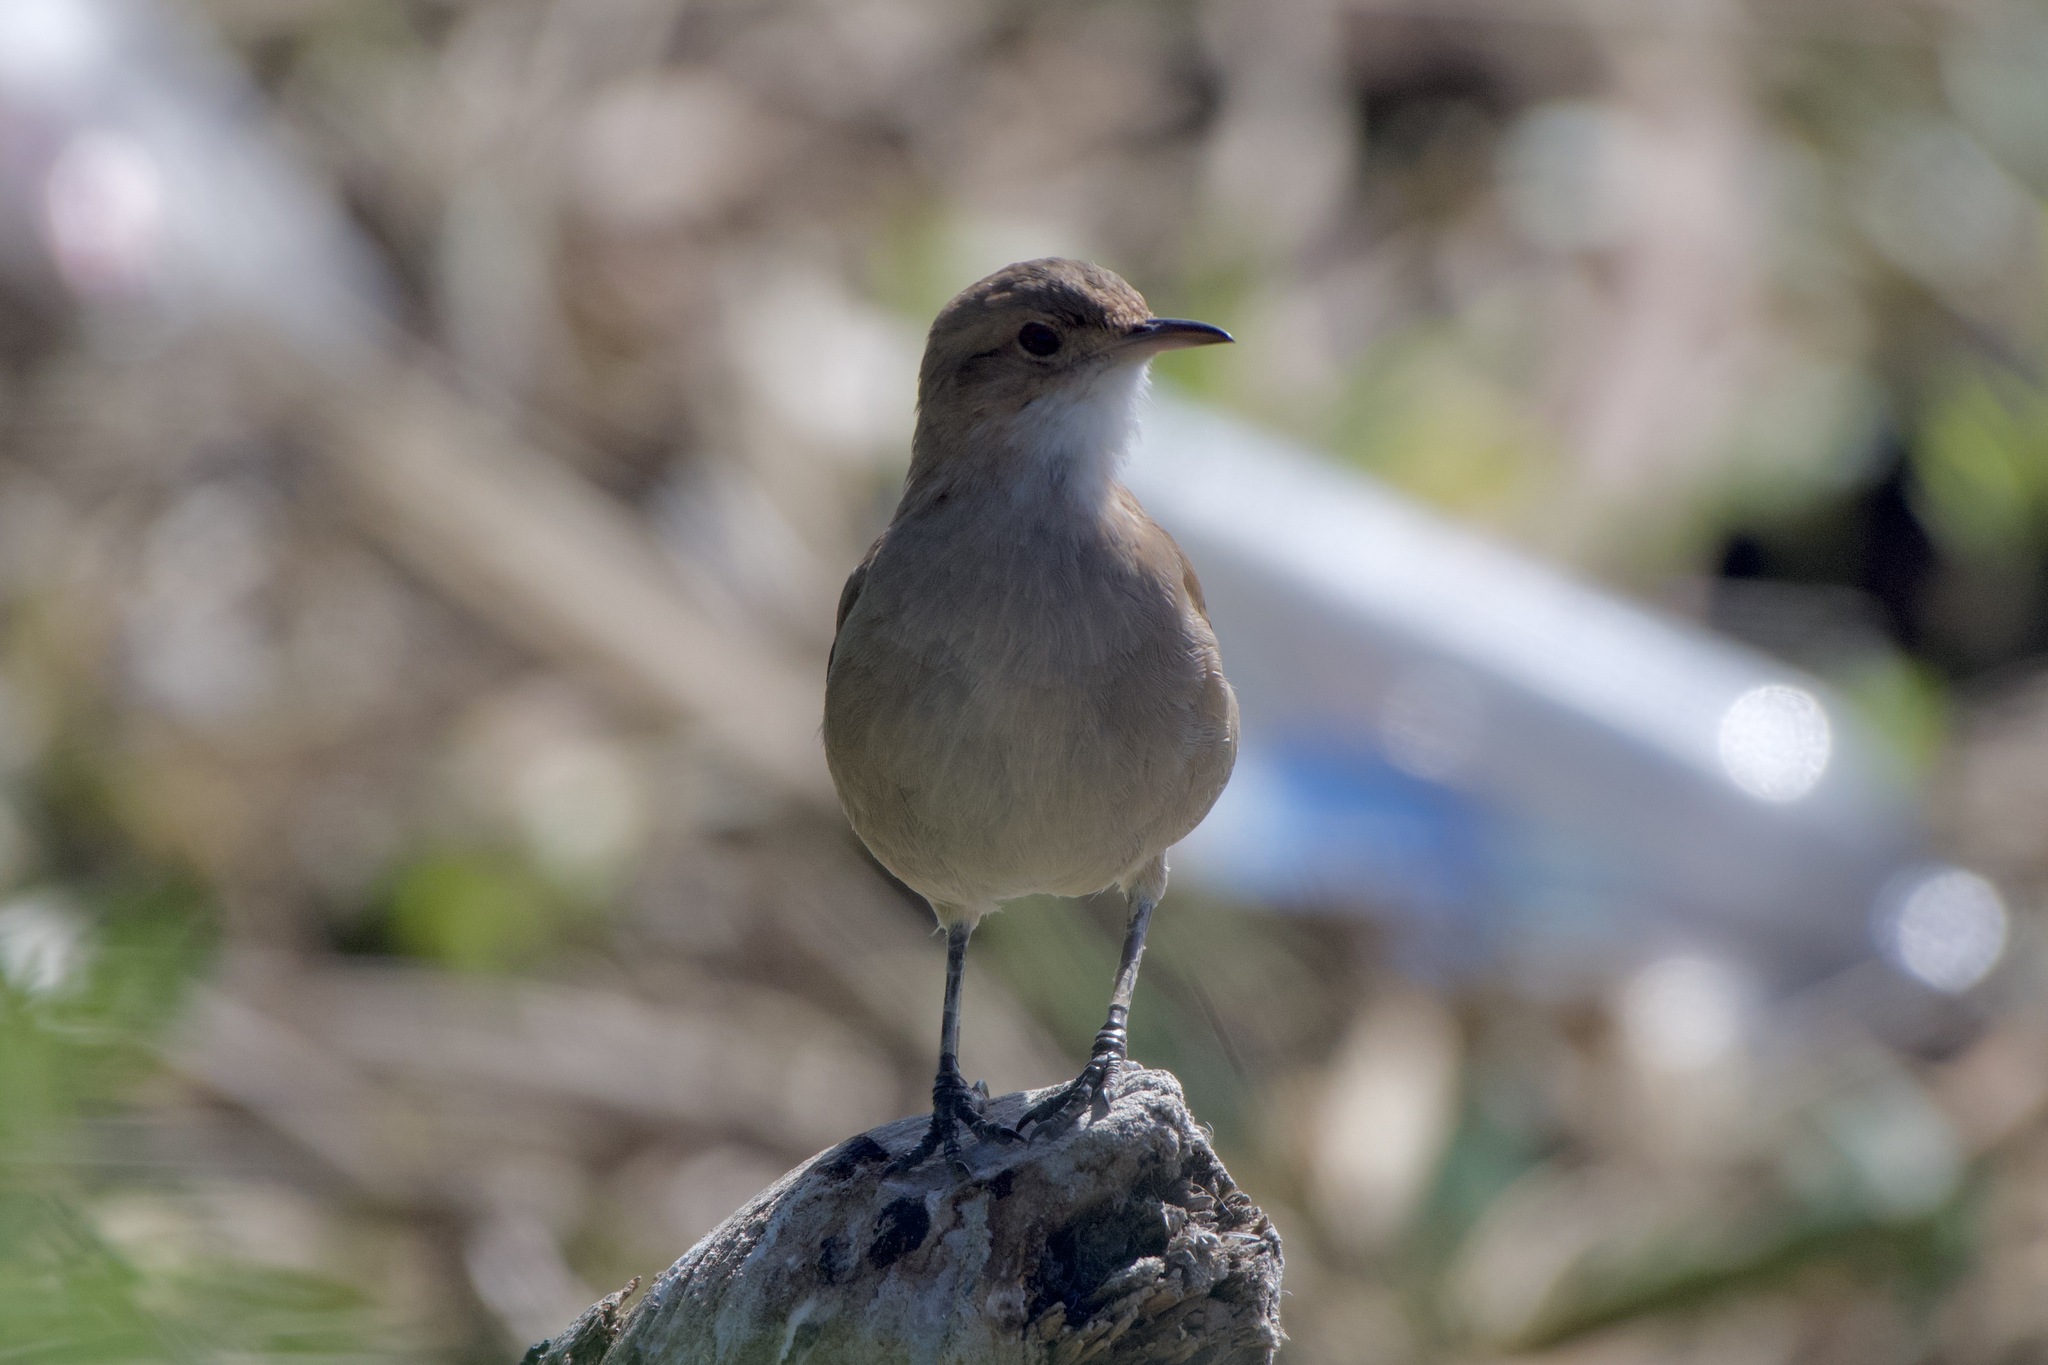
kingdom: Animalia
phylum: Chordata
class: Aves
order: Passeriformes
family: Furnariidae
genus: Furnarius
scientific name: Furnarius rufus
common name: Rufous hornero
